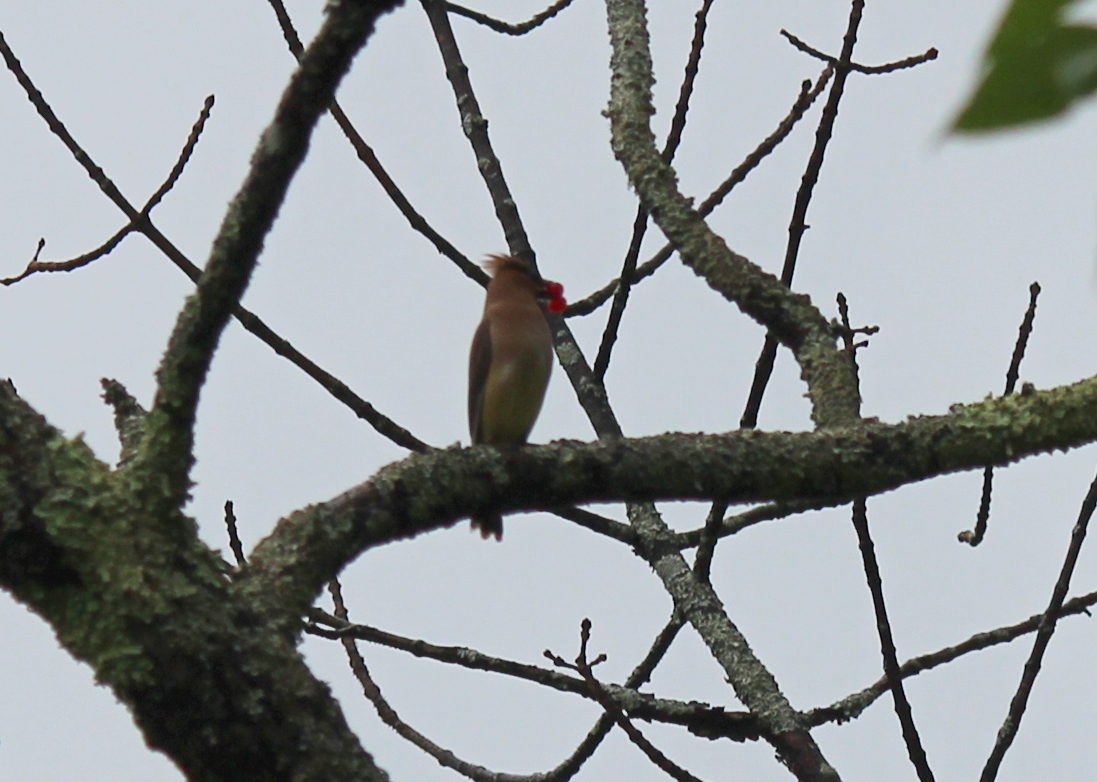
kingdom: Animalia
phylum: Chordata
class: Aves
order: Passeriformes
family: Bombycillidae
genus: Bombycilla
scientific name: Bombycilla cedrorum
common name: Cedar waxwing
